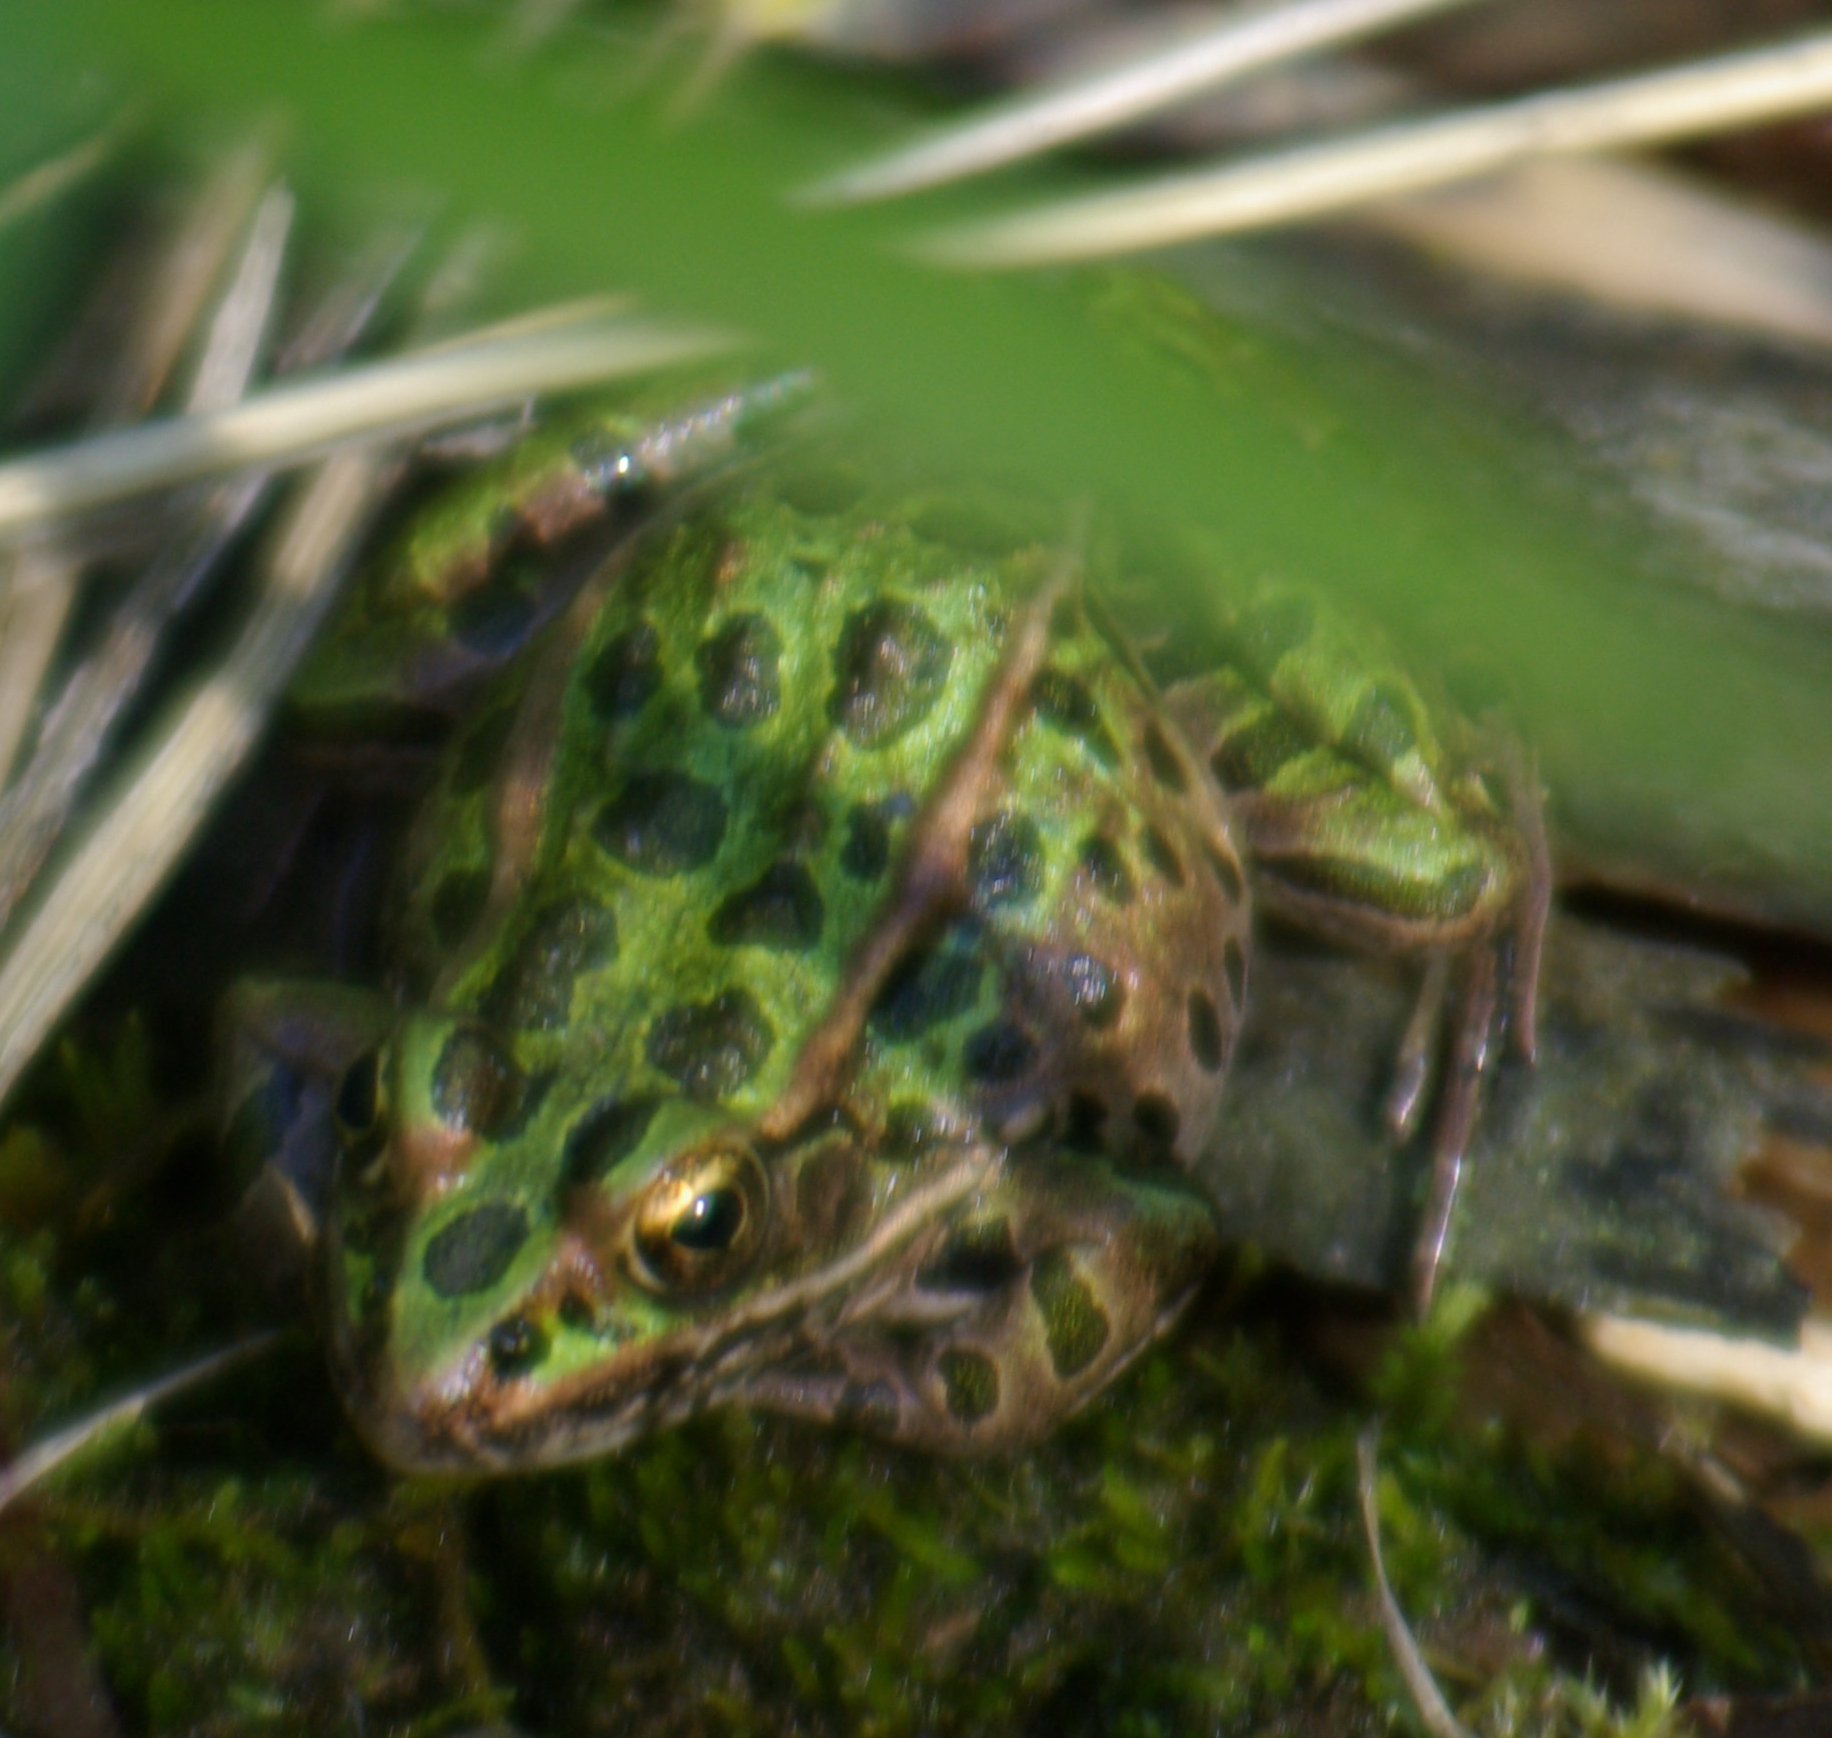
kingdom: Animalia
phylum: Chordata
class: Amphibia
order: Anura
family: Ranidae
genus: Lithobates
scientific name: Lithobates pipiens
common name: Northern leopard frog
